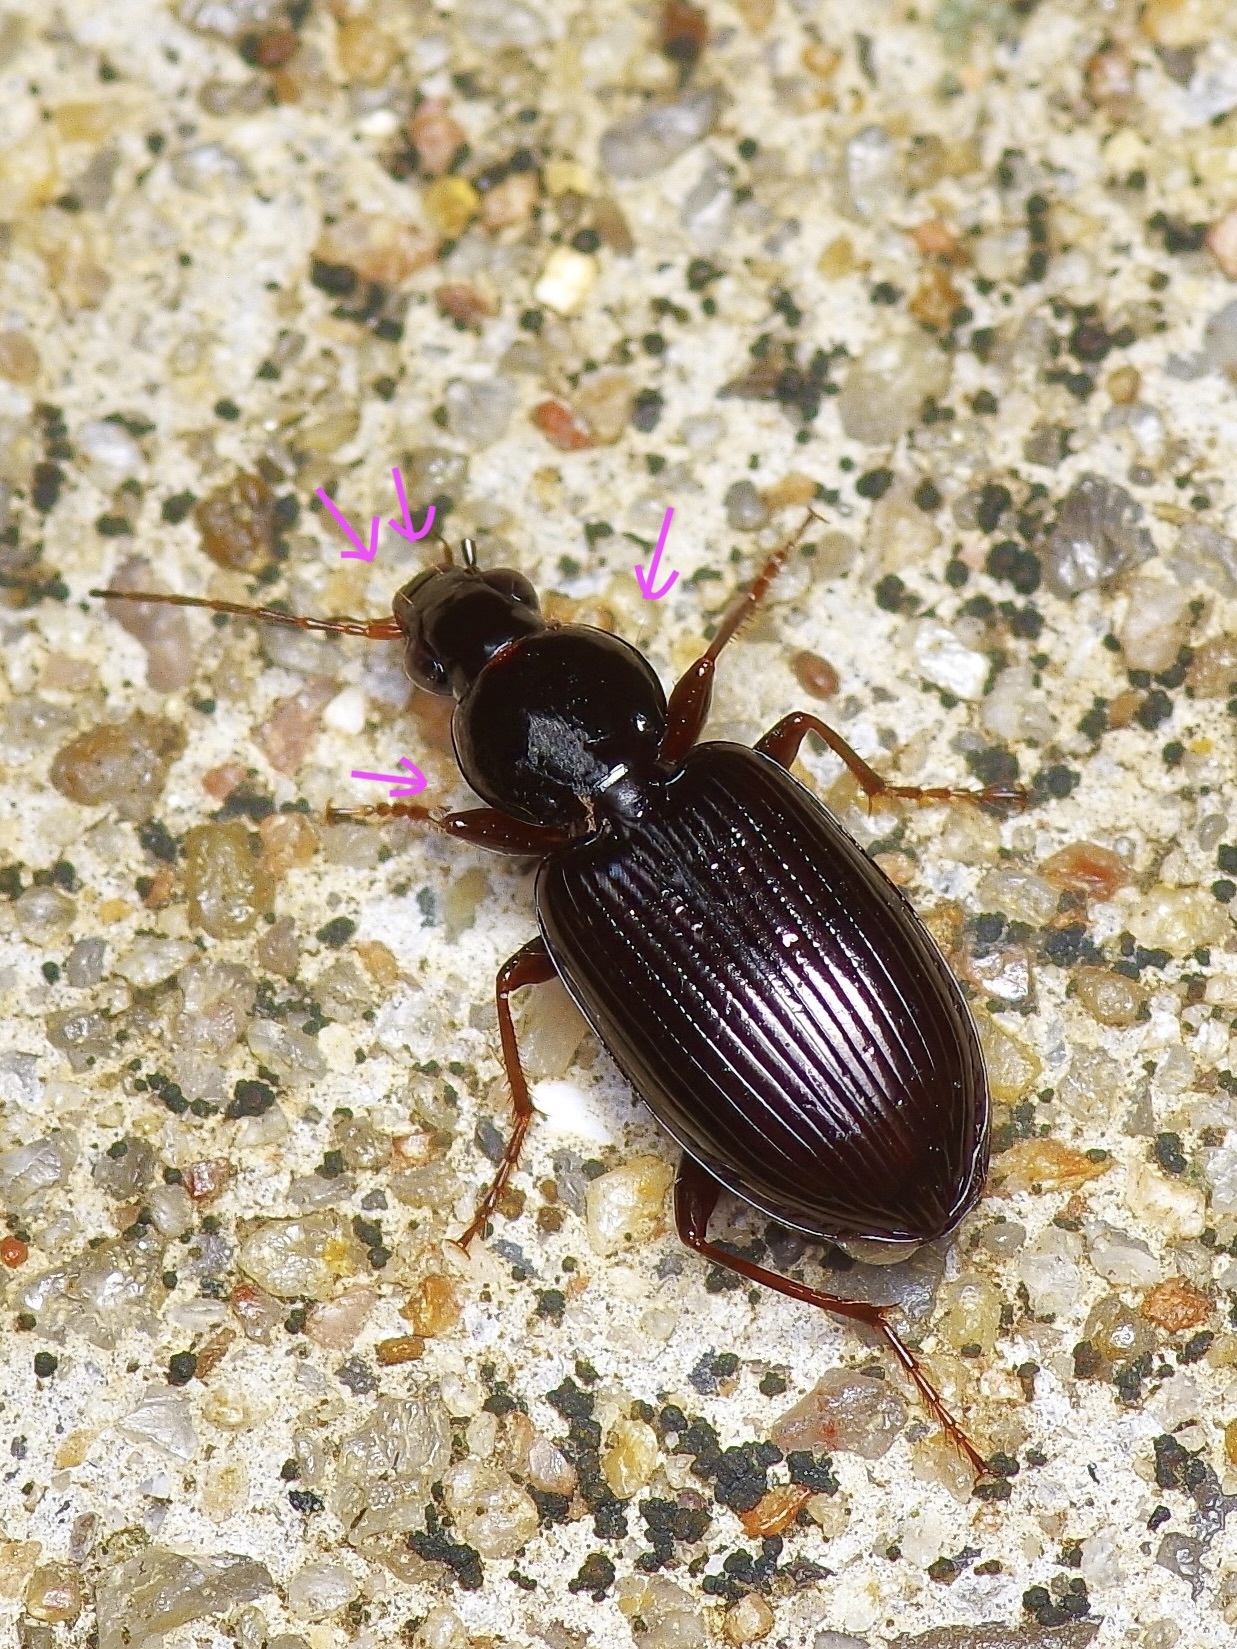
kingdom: Animalia
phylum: Arthropoda
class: Insecta
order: Coleoptera
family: Carabidae
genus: Agonum
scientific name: Agonum punctiforme
